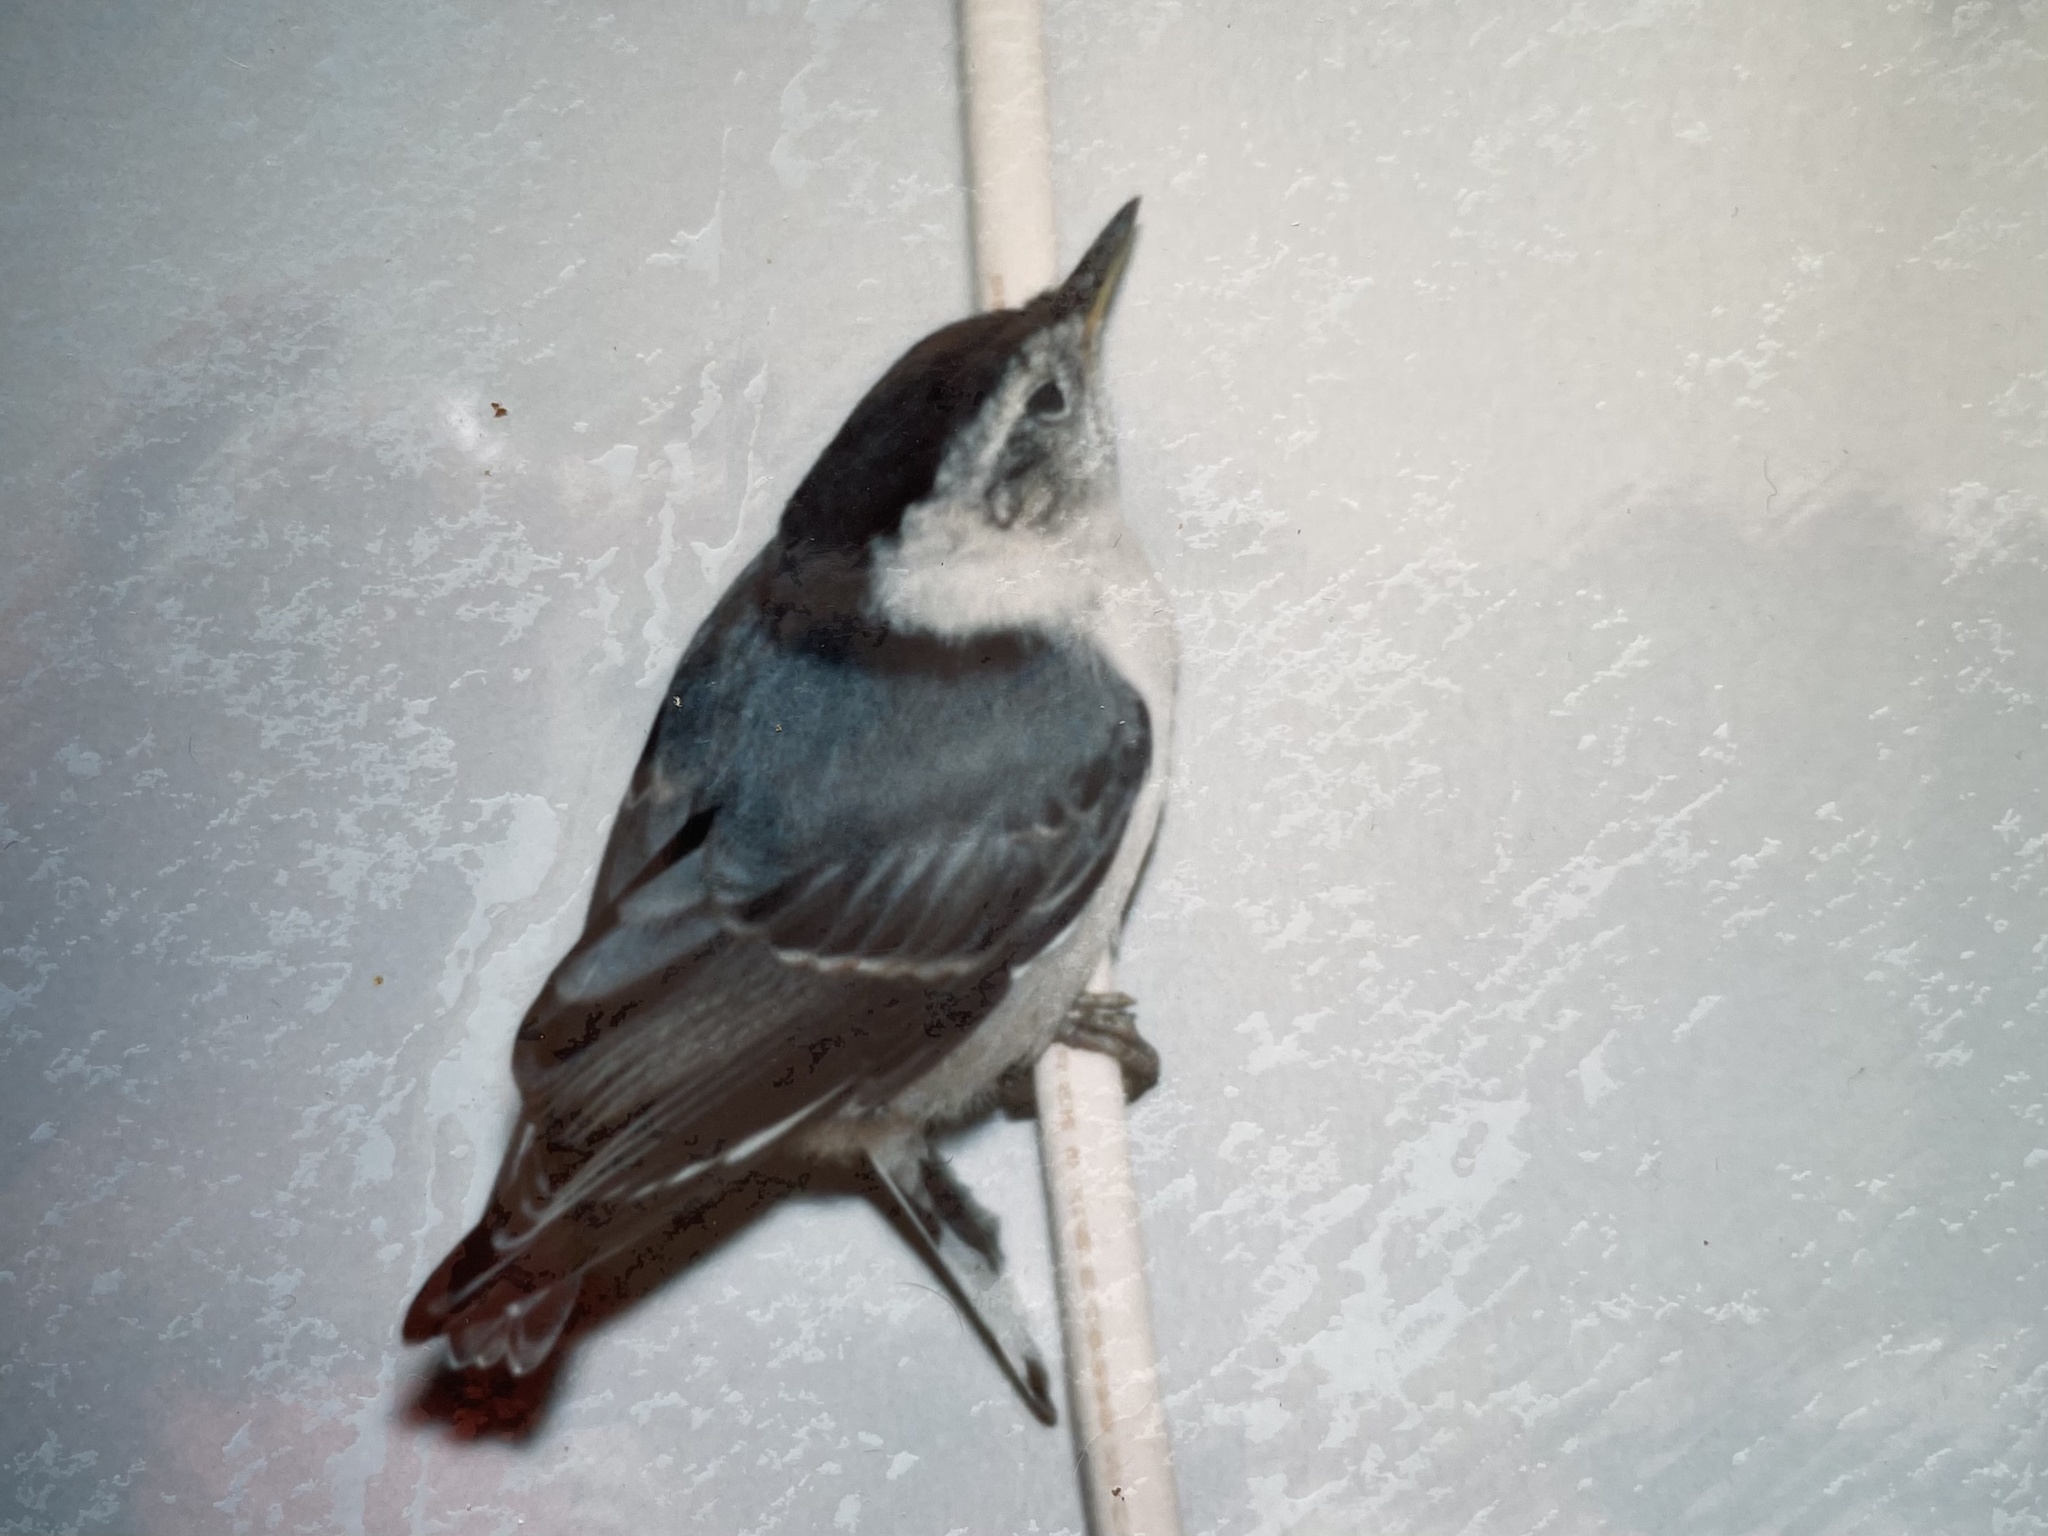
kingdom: Animalia
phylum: Chordata
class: Aves
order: Passeriformes
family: Sittidae
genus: Sitta
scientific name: Sitta carolinensis
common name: White-breasted nuthatch
